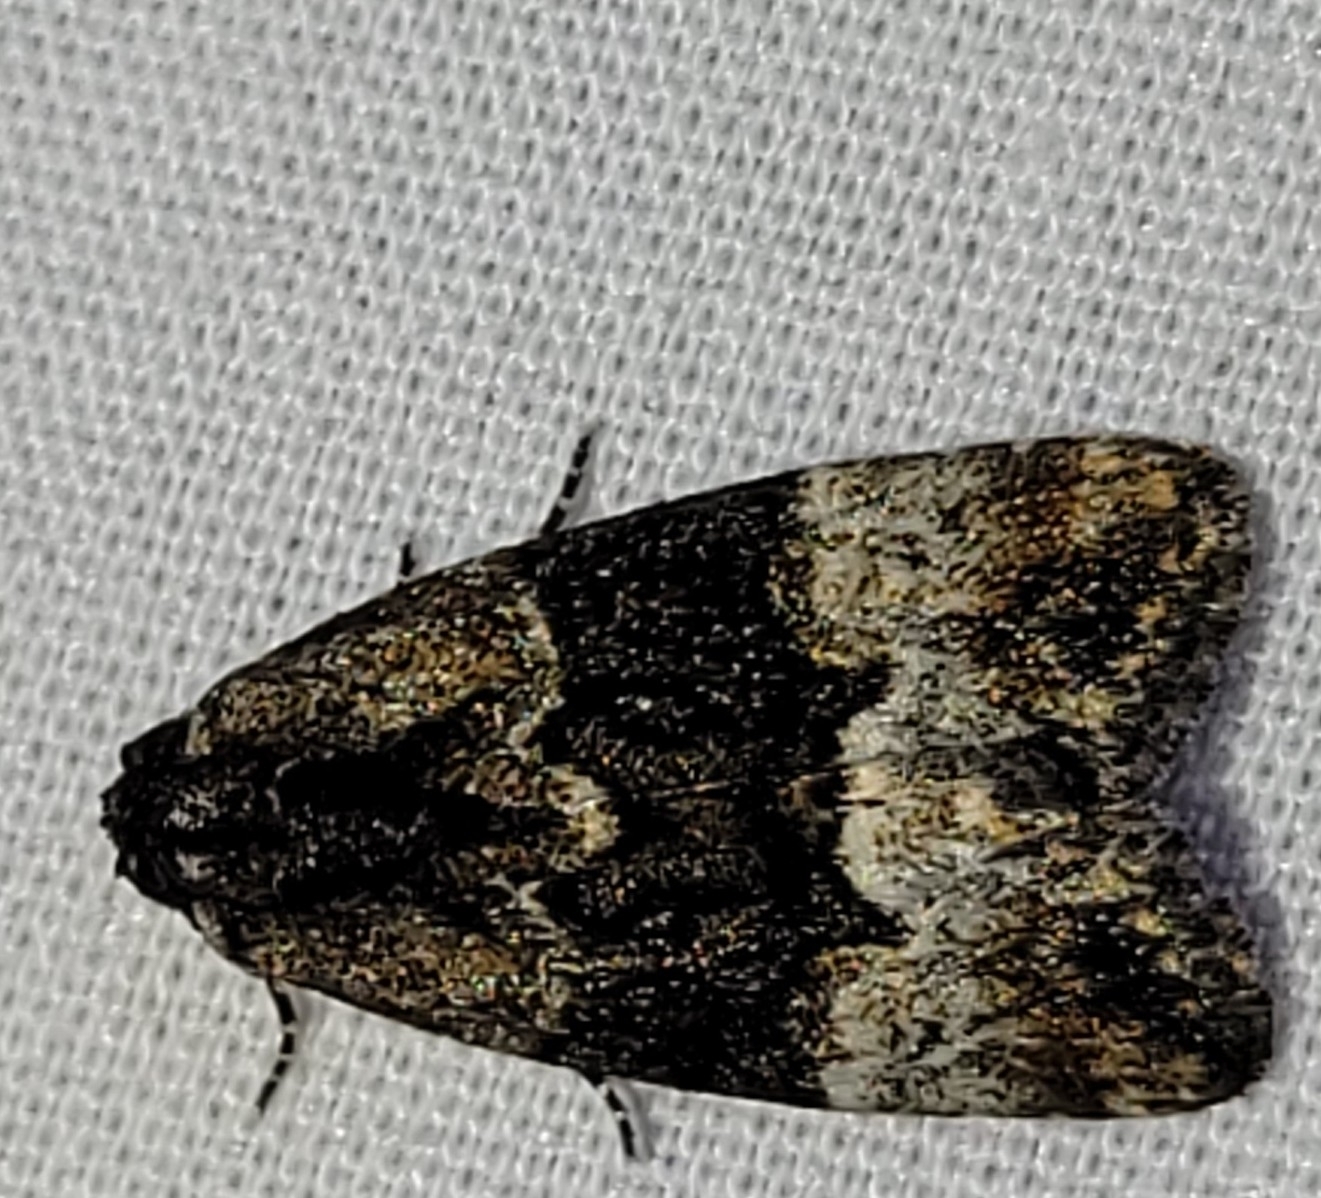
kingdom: Animalia
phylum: Arthropoda
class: Insecta
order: Lepidoptera
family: Noctuidae
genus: Elaphria
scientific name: Elaphria georgei
